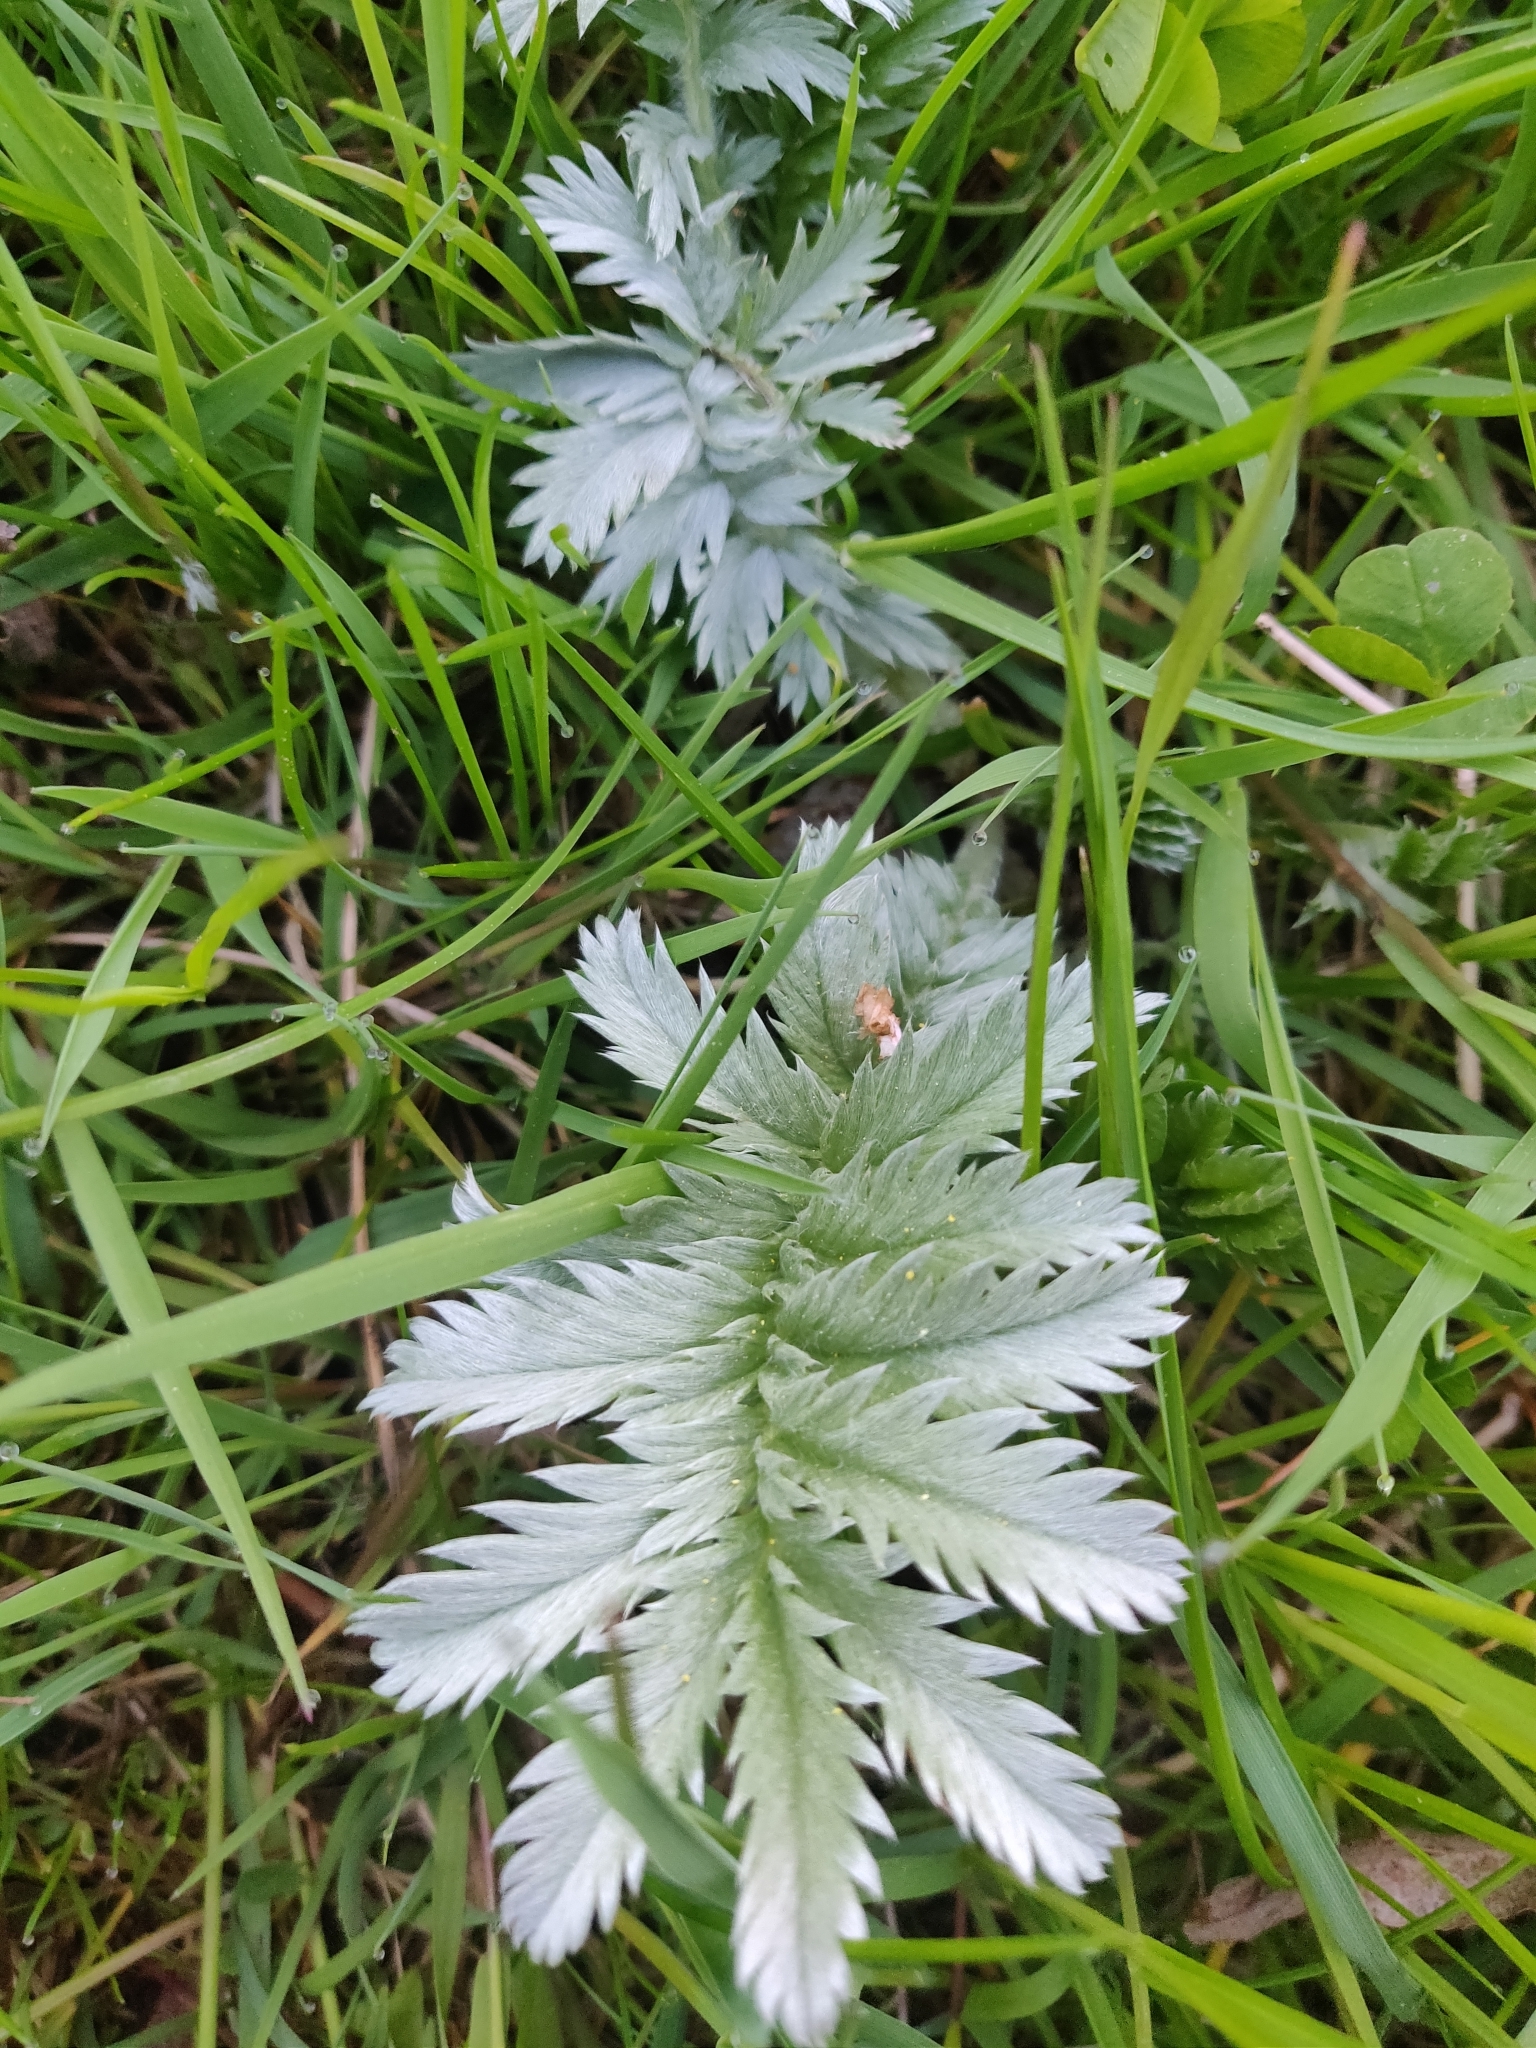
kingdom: Plantae
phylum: Tracheophyta
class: Magnoliopsida
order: Rosales
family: Rosaceae
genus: Argentina
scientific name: Argentina anserina
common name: Common silverweed
